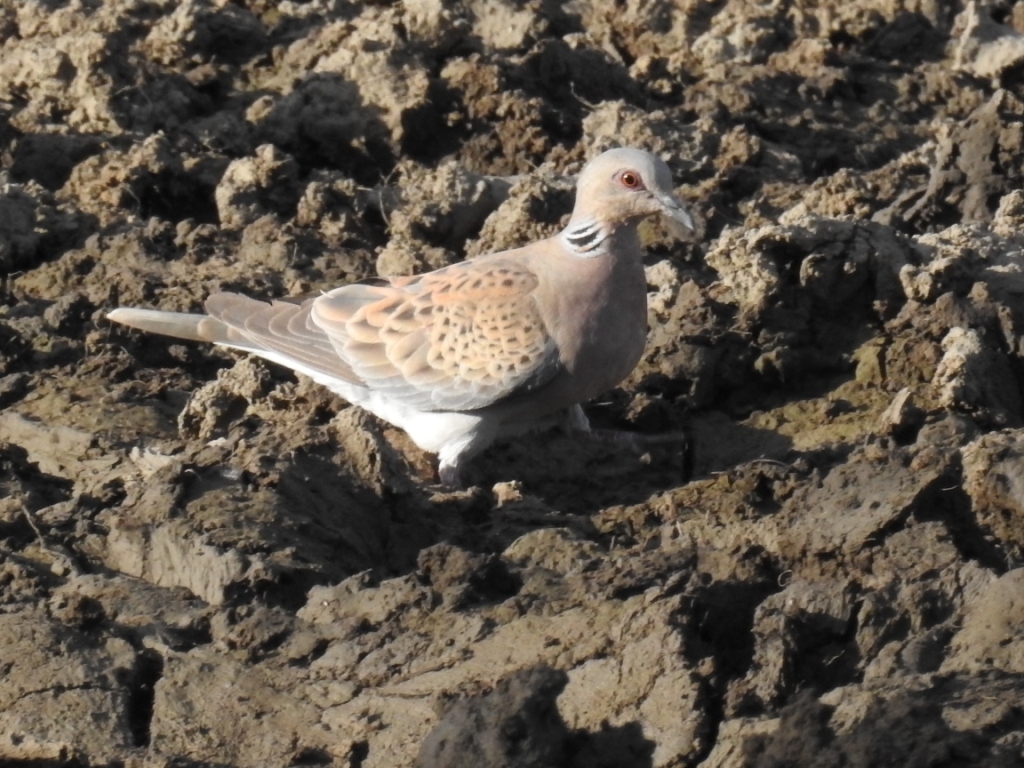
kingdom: Animalia
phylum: Chordata
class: Aves
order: Columbiformes
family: Columbidae
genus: Streptopelia
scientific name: Streptopelia turtur
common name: European turtle dove
